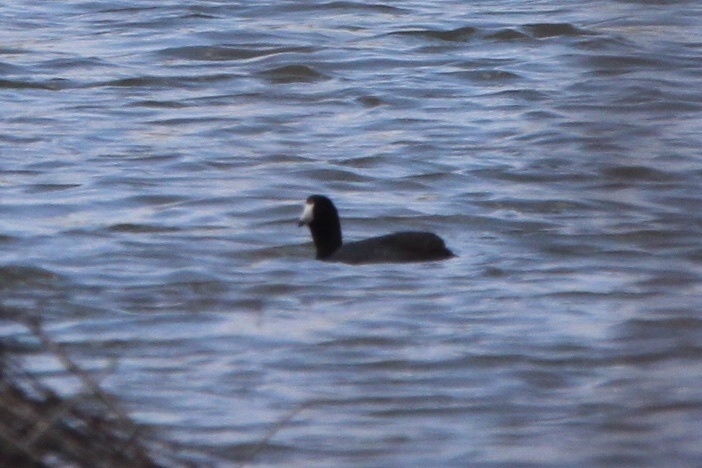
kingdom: Animalia
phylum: Chordata
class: Aves
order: Gruiformes
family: Rallidae
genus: Fulica
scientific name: Fulica americana
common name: American coot
